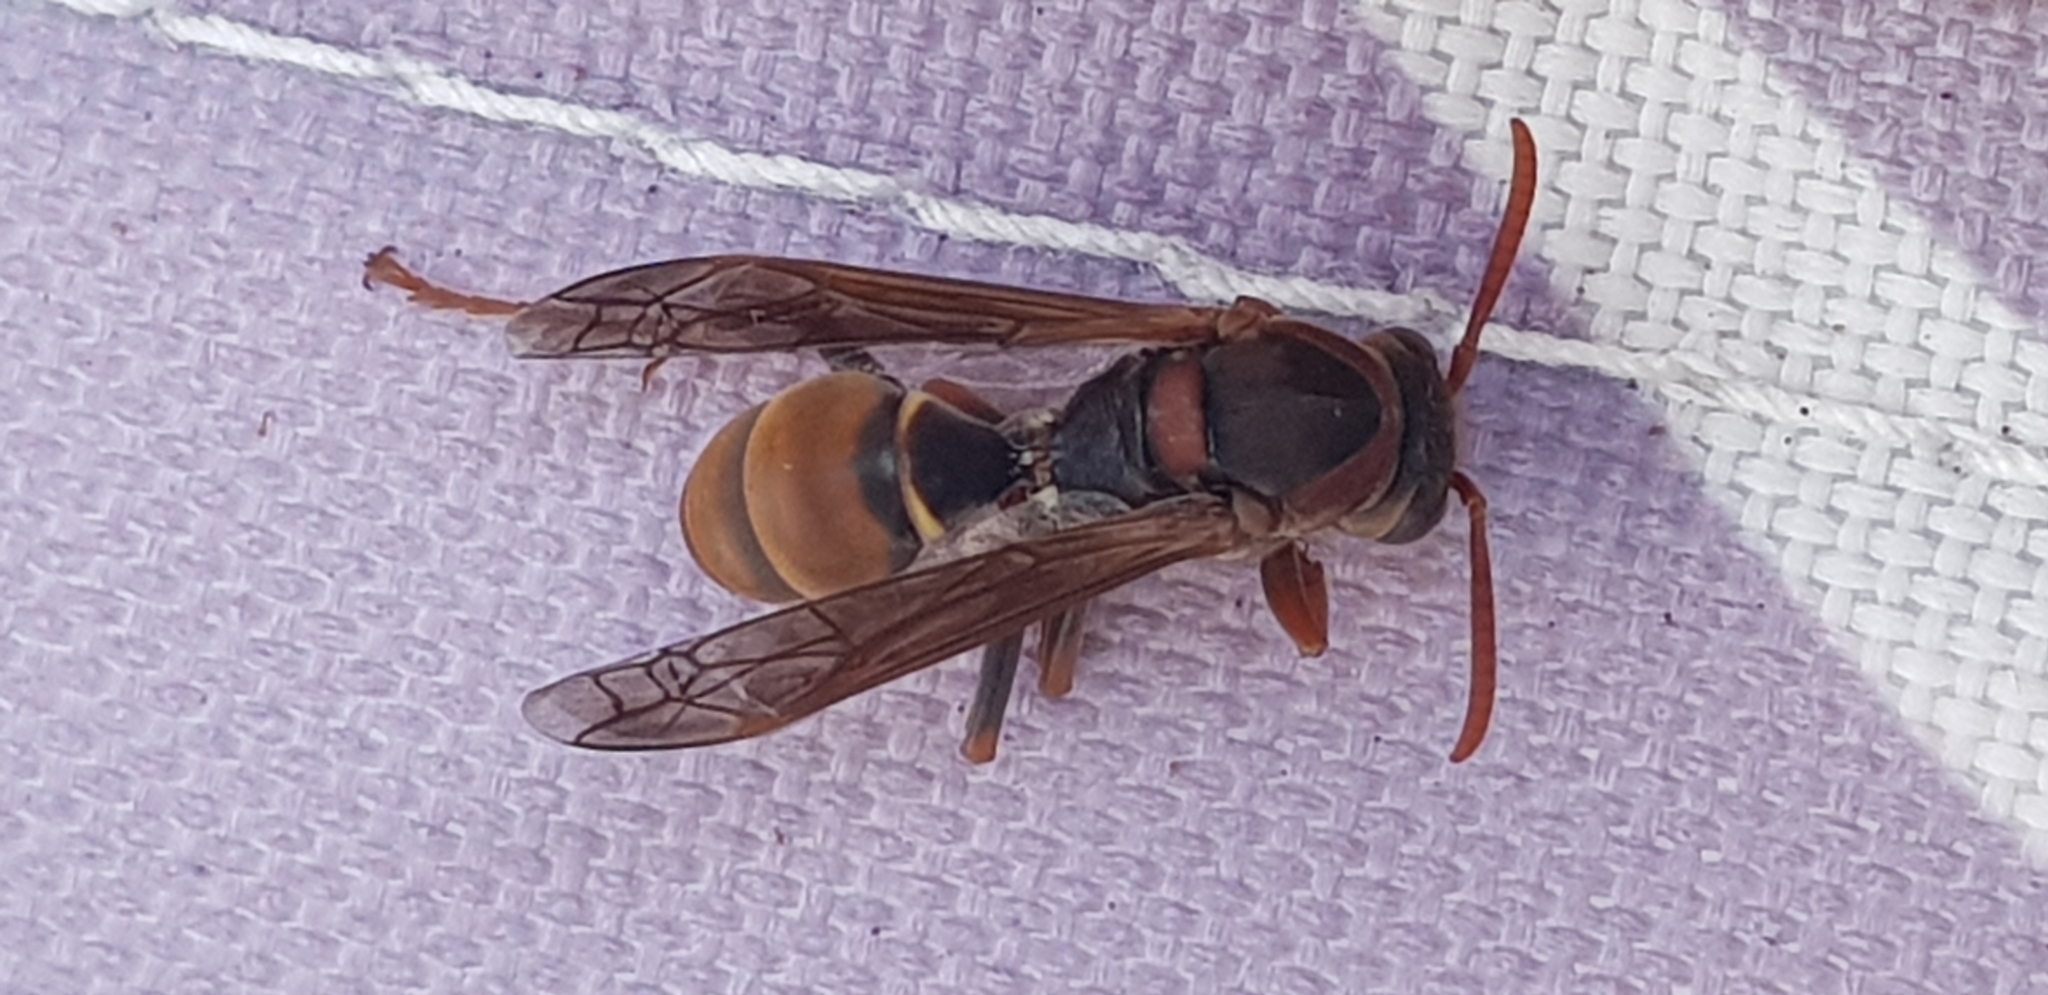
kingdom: Animalia
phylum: Arthropoda
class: Insecta
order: Hymenoptera
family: Eumenidae
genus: Polistes
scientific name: Polistes humilis
